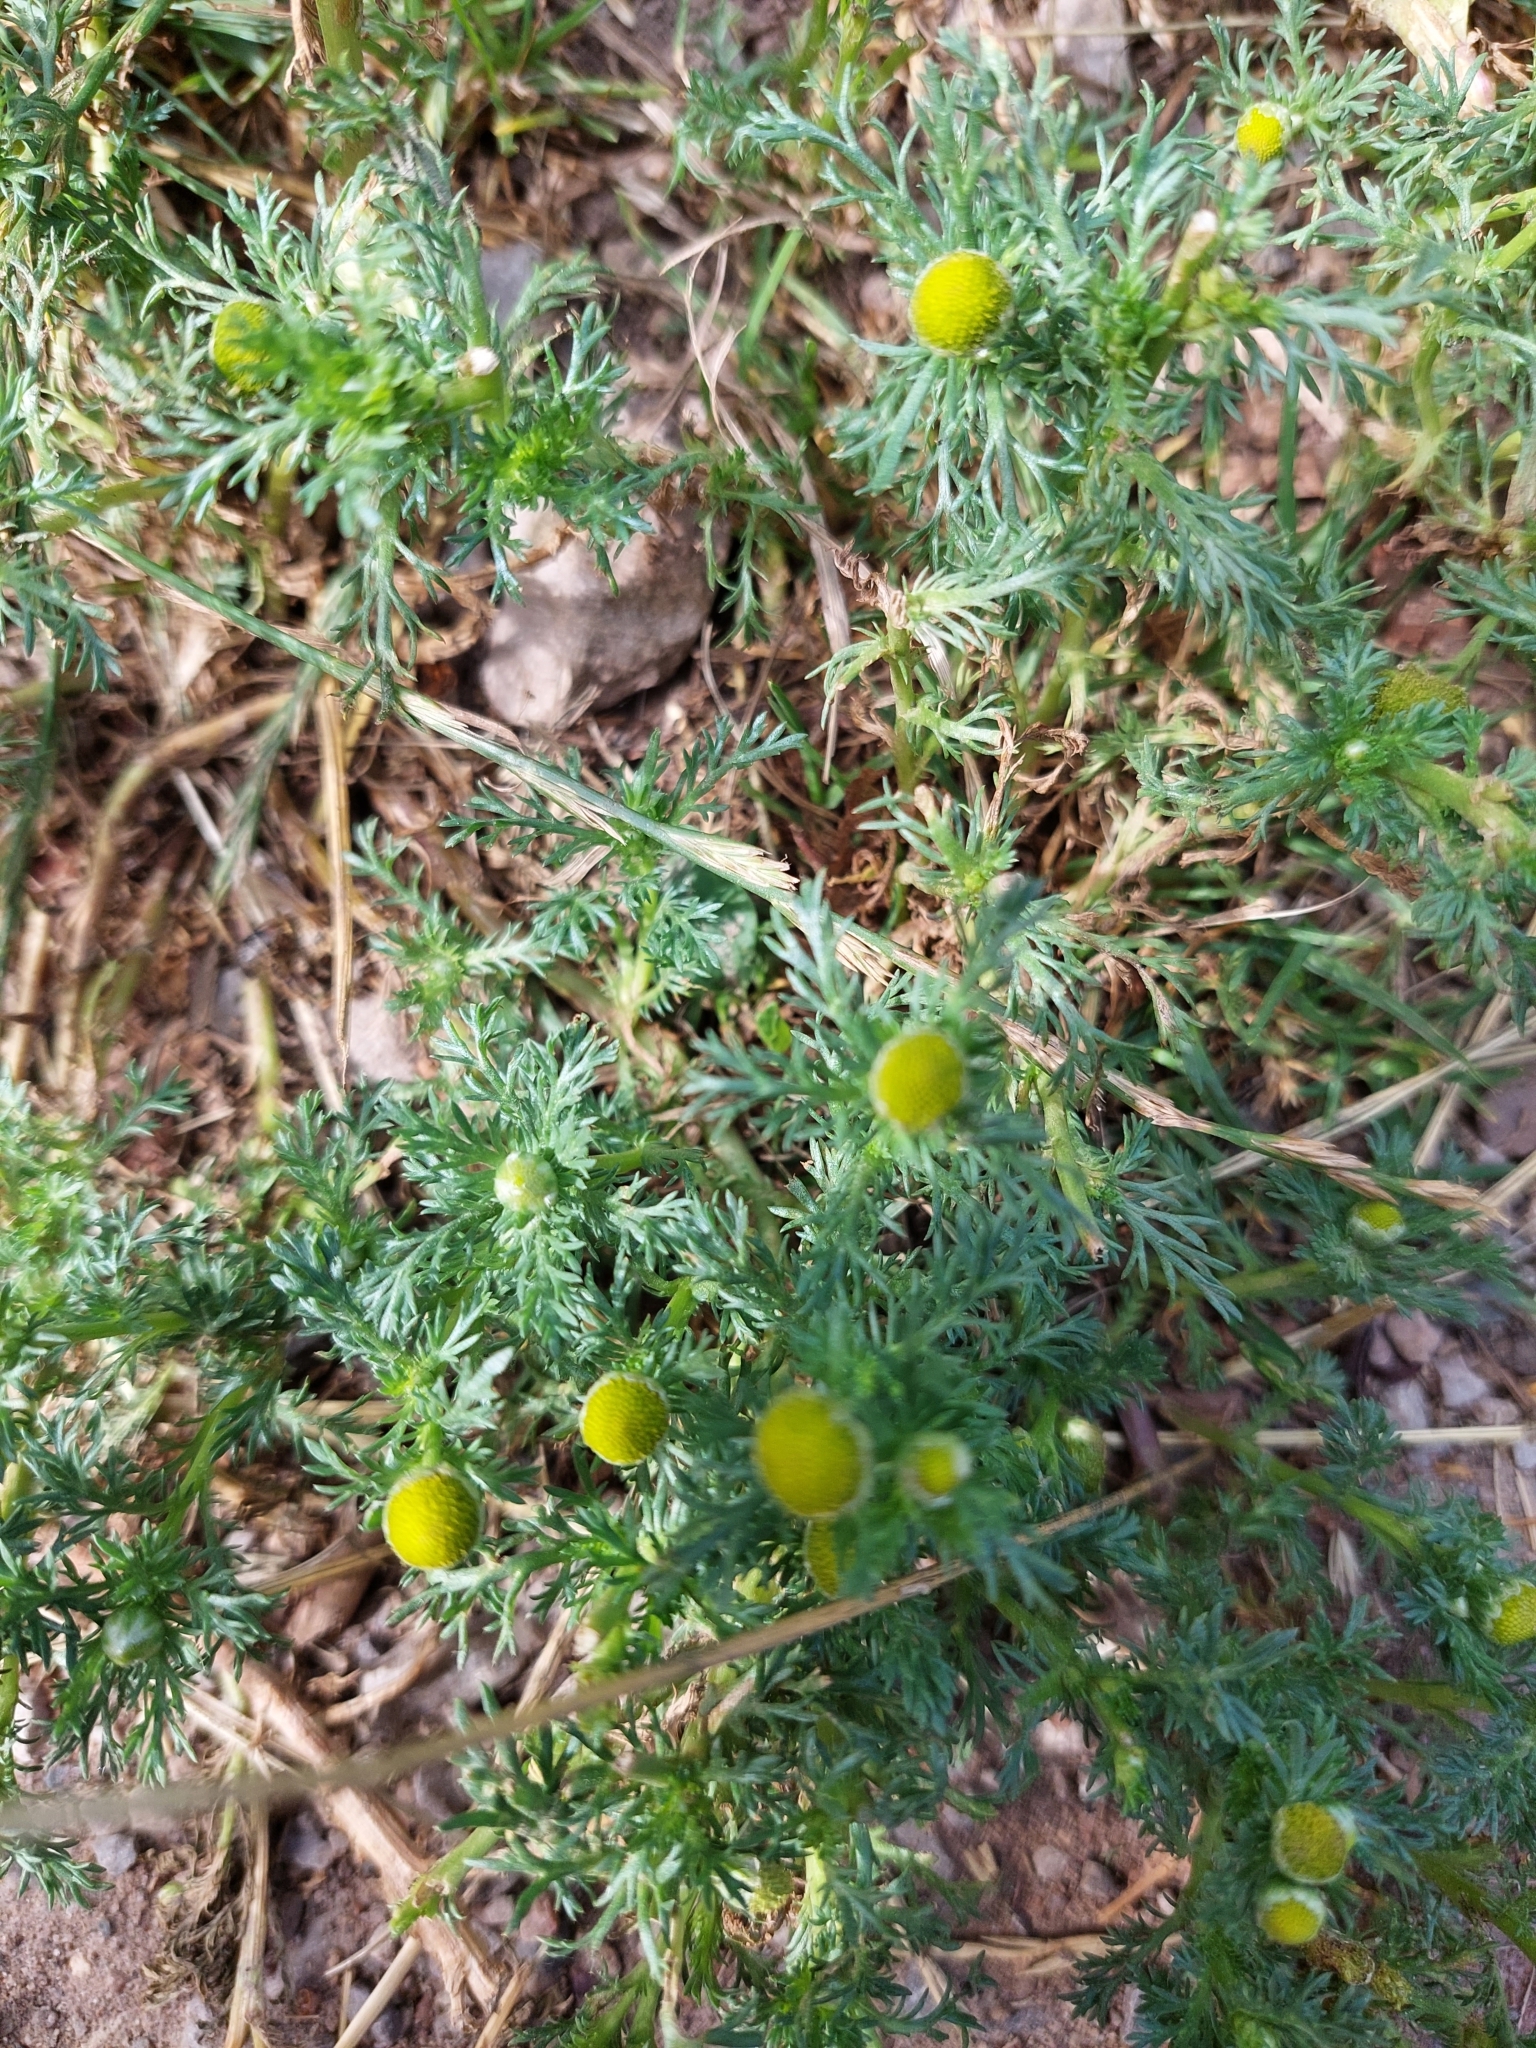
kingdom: Plantae
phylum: Tracheophyta
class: Magnoliopsida
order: Asterales
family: Asteraceae
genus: Matricaria
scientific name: Matricaria discoidea
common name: Disc mayweed
